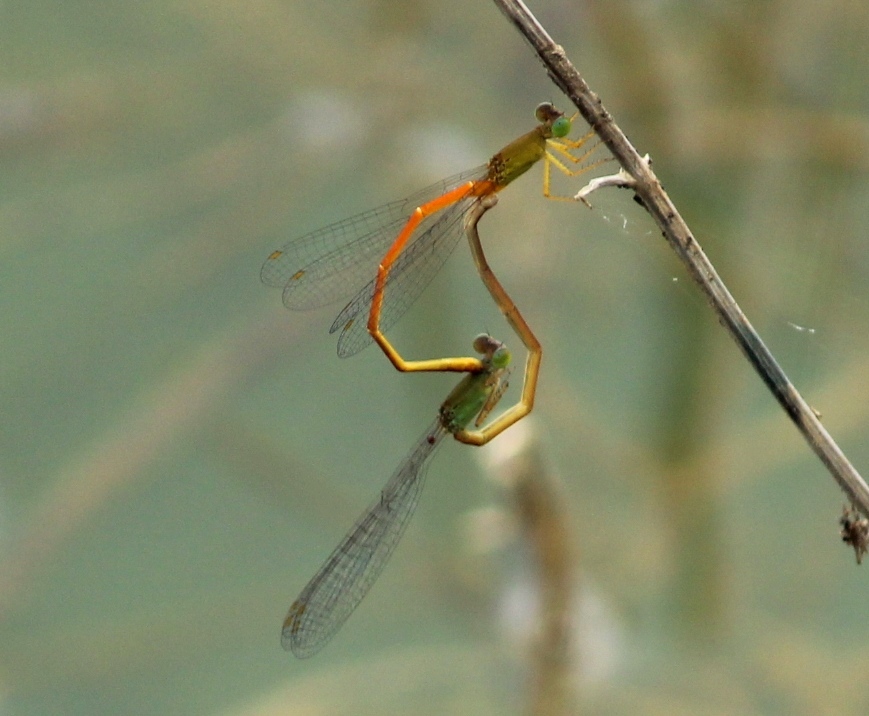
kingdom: Animalia
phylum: Arthropoda
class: Insecta
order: Odonata
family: Coenagrionidae
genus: Ceriagrion
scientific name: Ceriagrion rubiae
